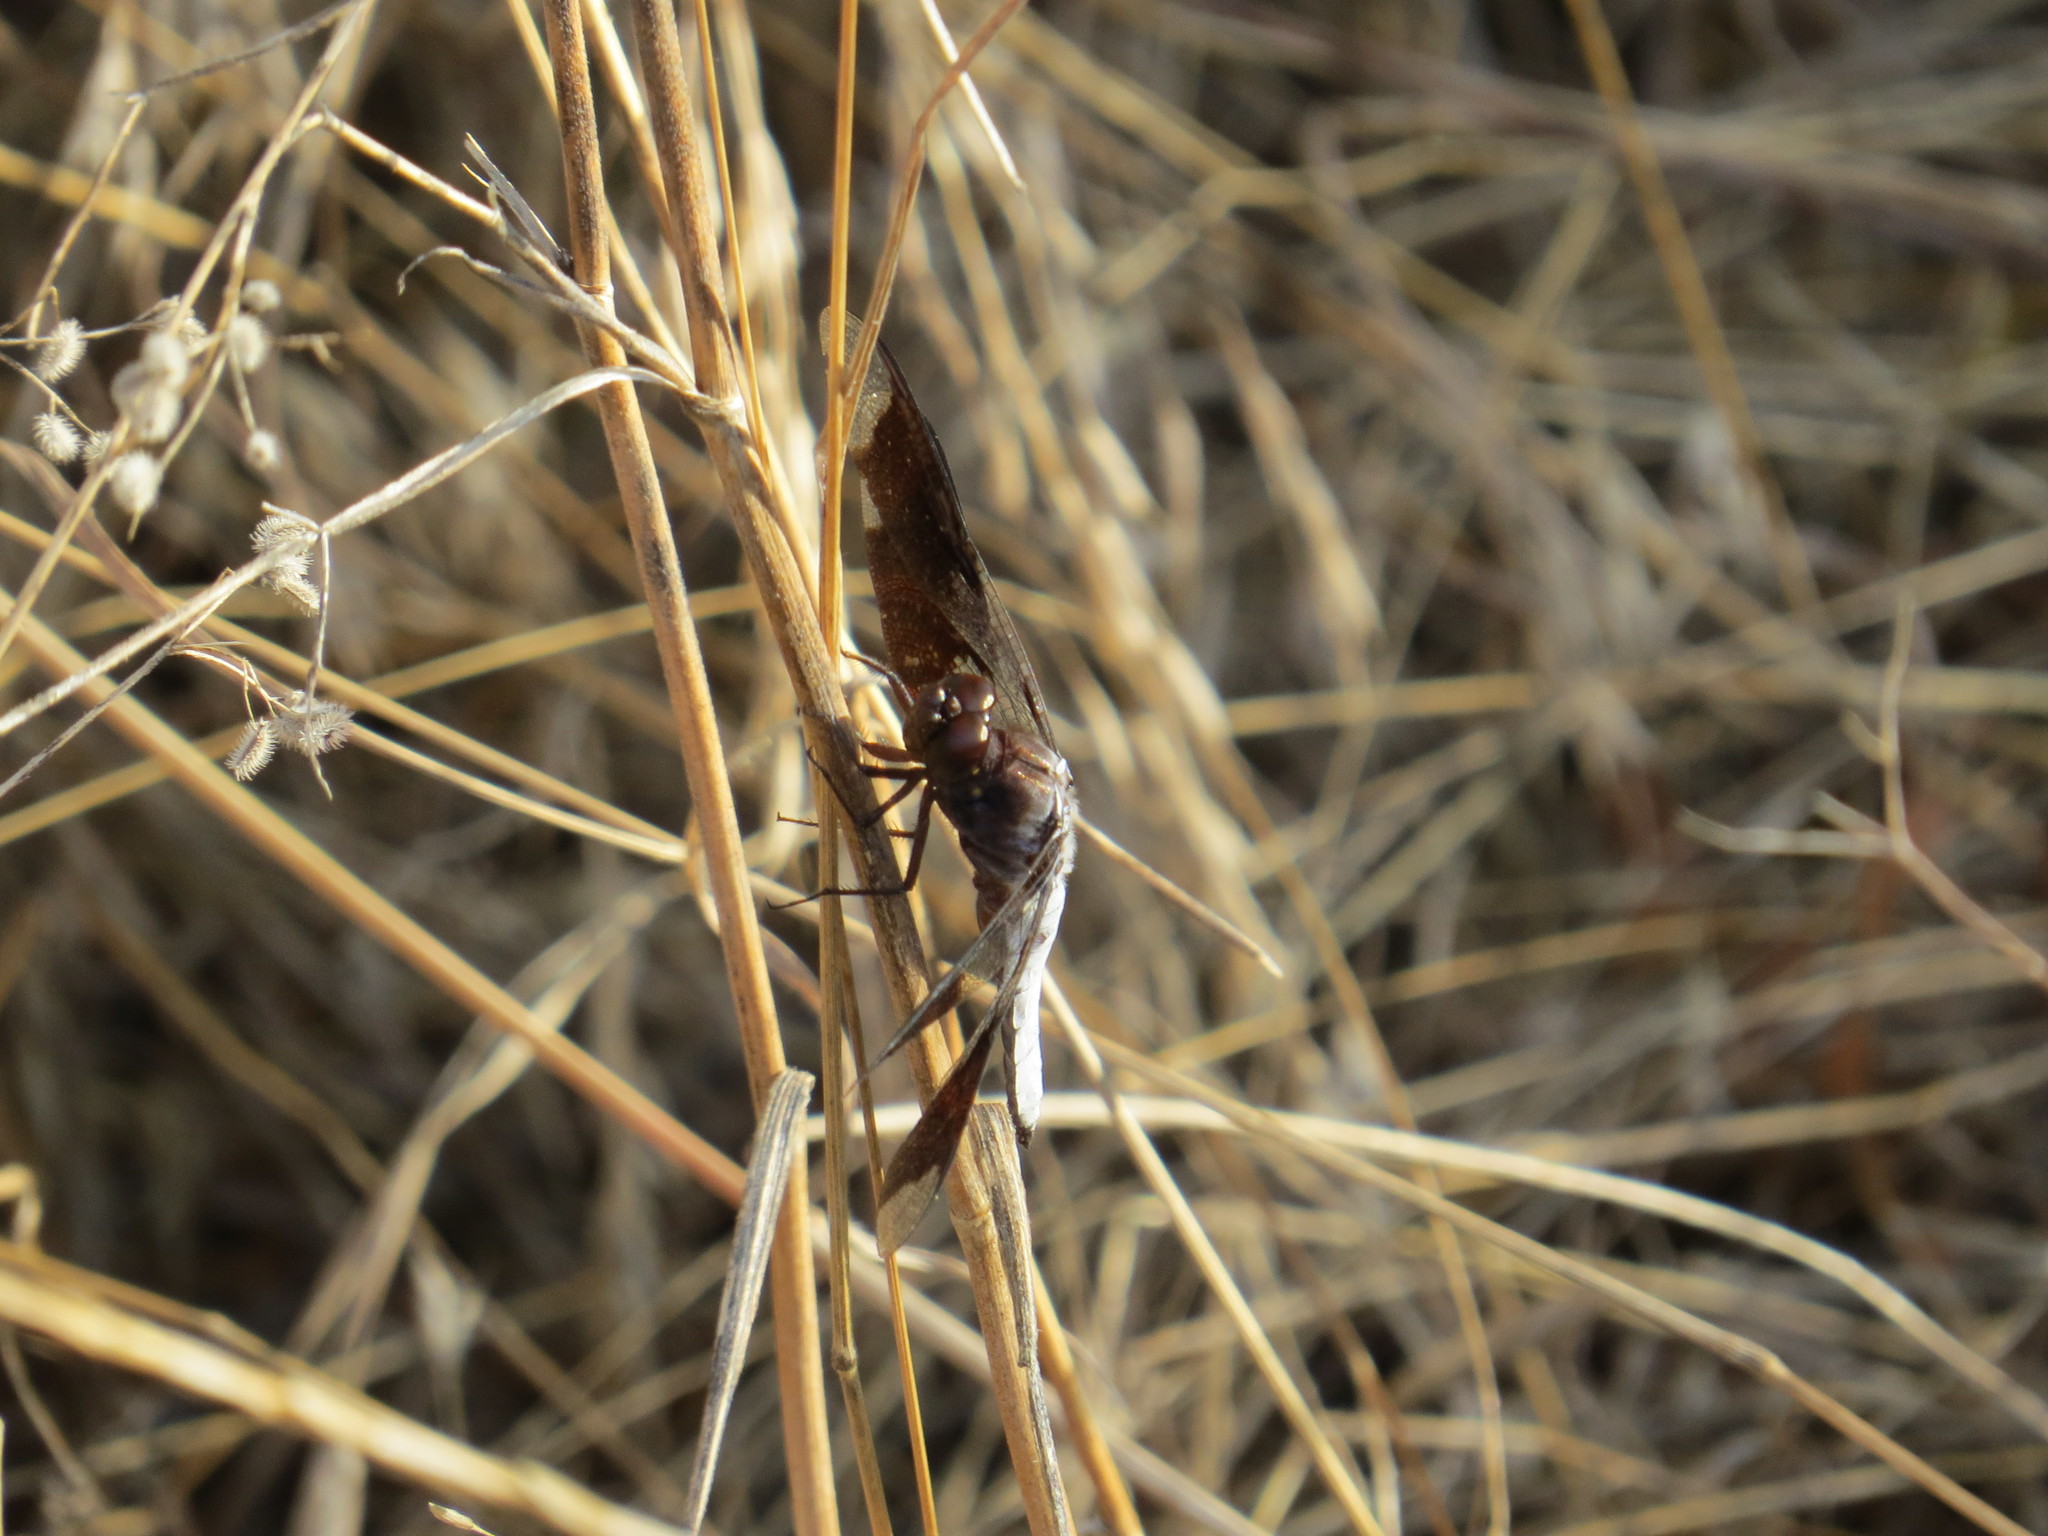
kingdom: Animalia
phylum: Arthropoda
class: Insecta
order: Odonata
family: Libellulidae
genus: Plathemis
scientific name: Plathemis lydia
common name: Common whitetail
